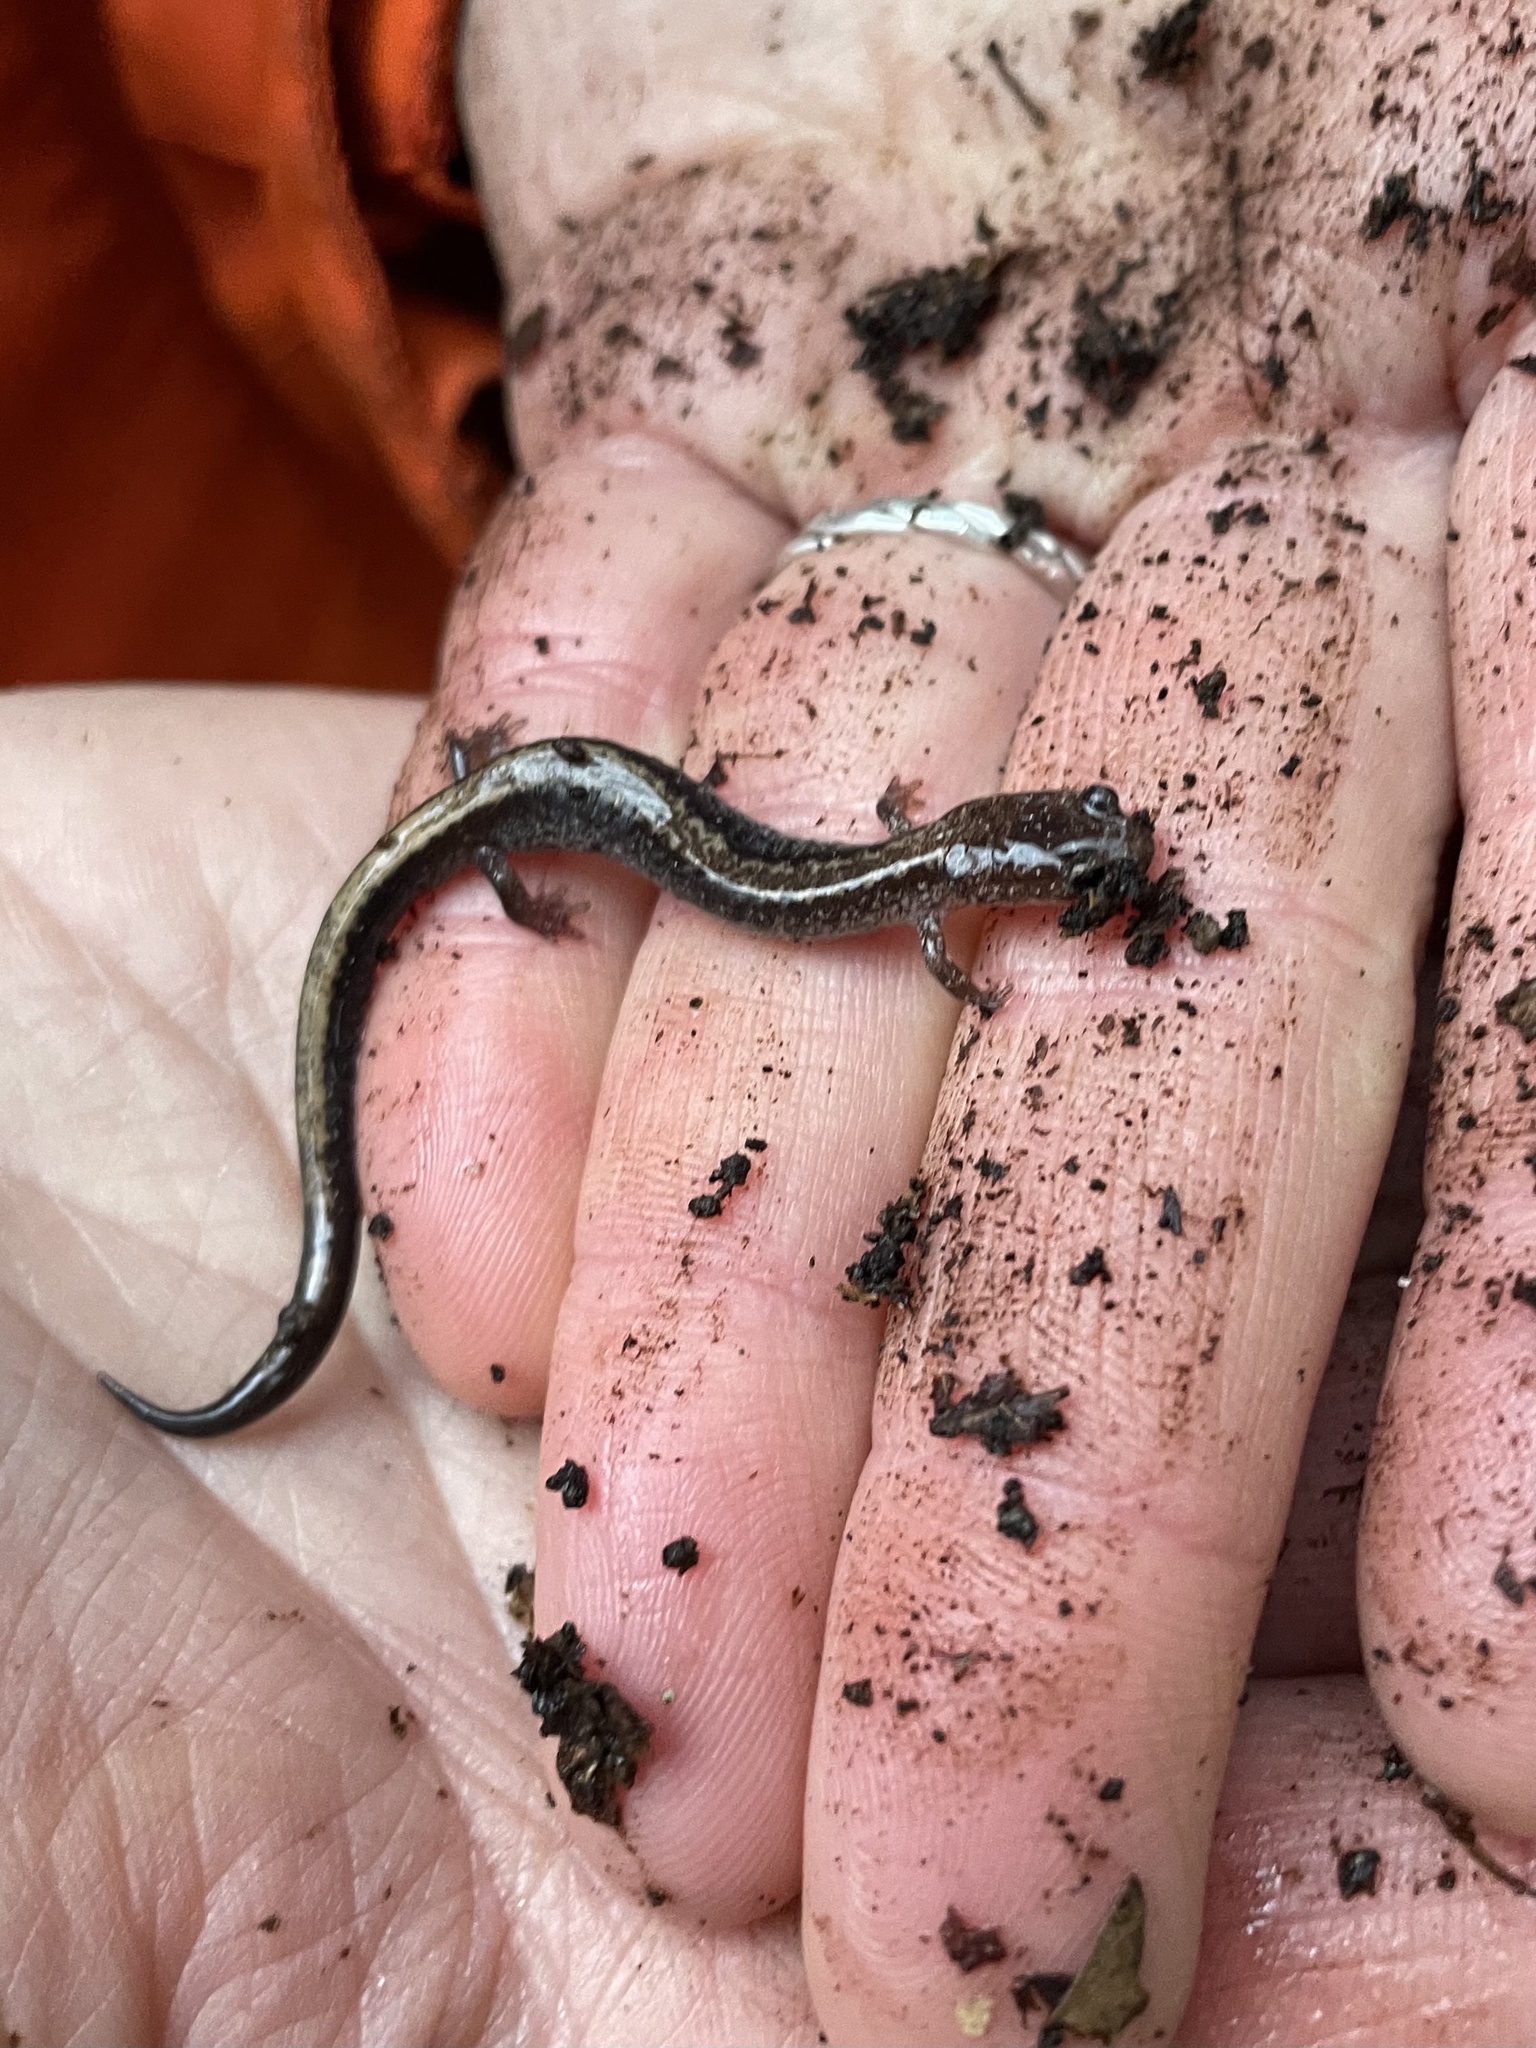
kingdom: Animalia
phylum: Chordata
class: Amphibia
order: Caudata
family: Plethodontidae
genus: Plethodon
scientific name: Plethodon cinereus
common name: Redback salamander
